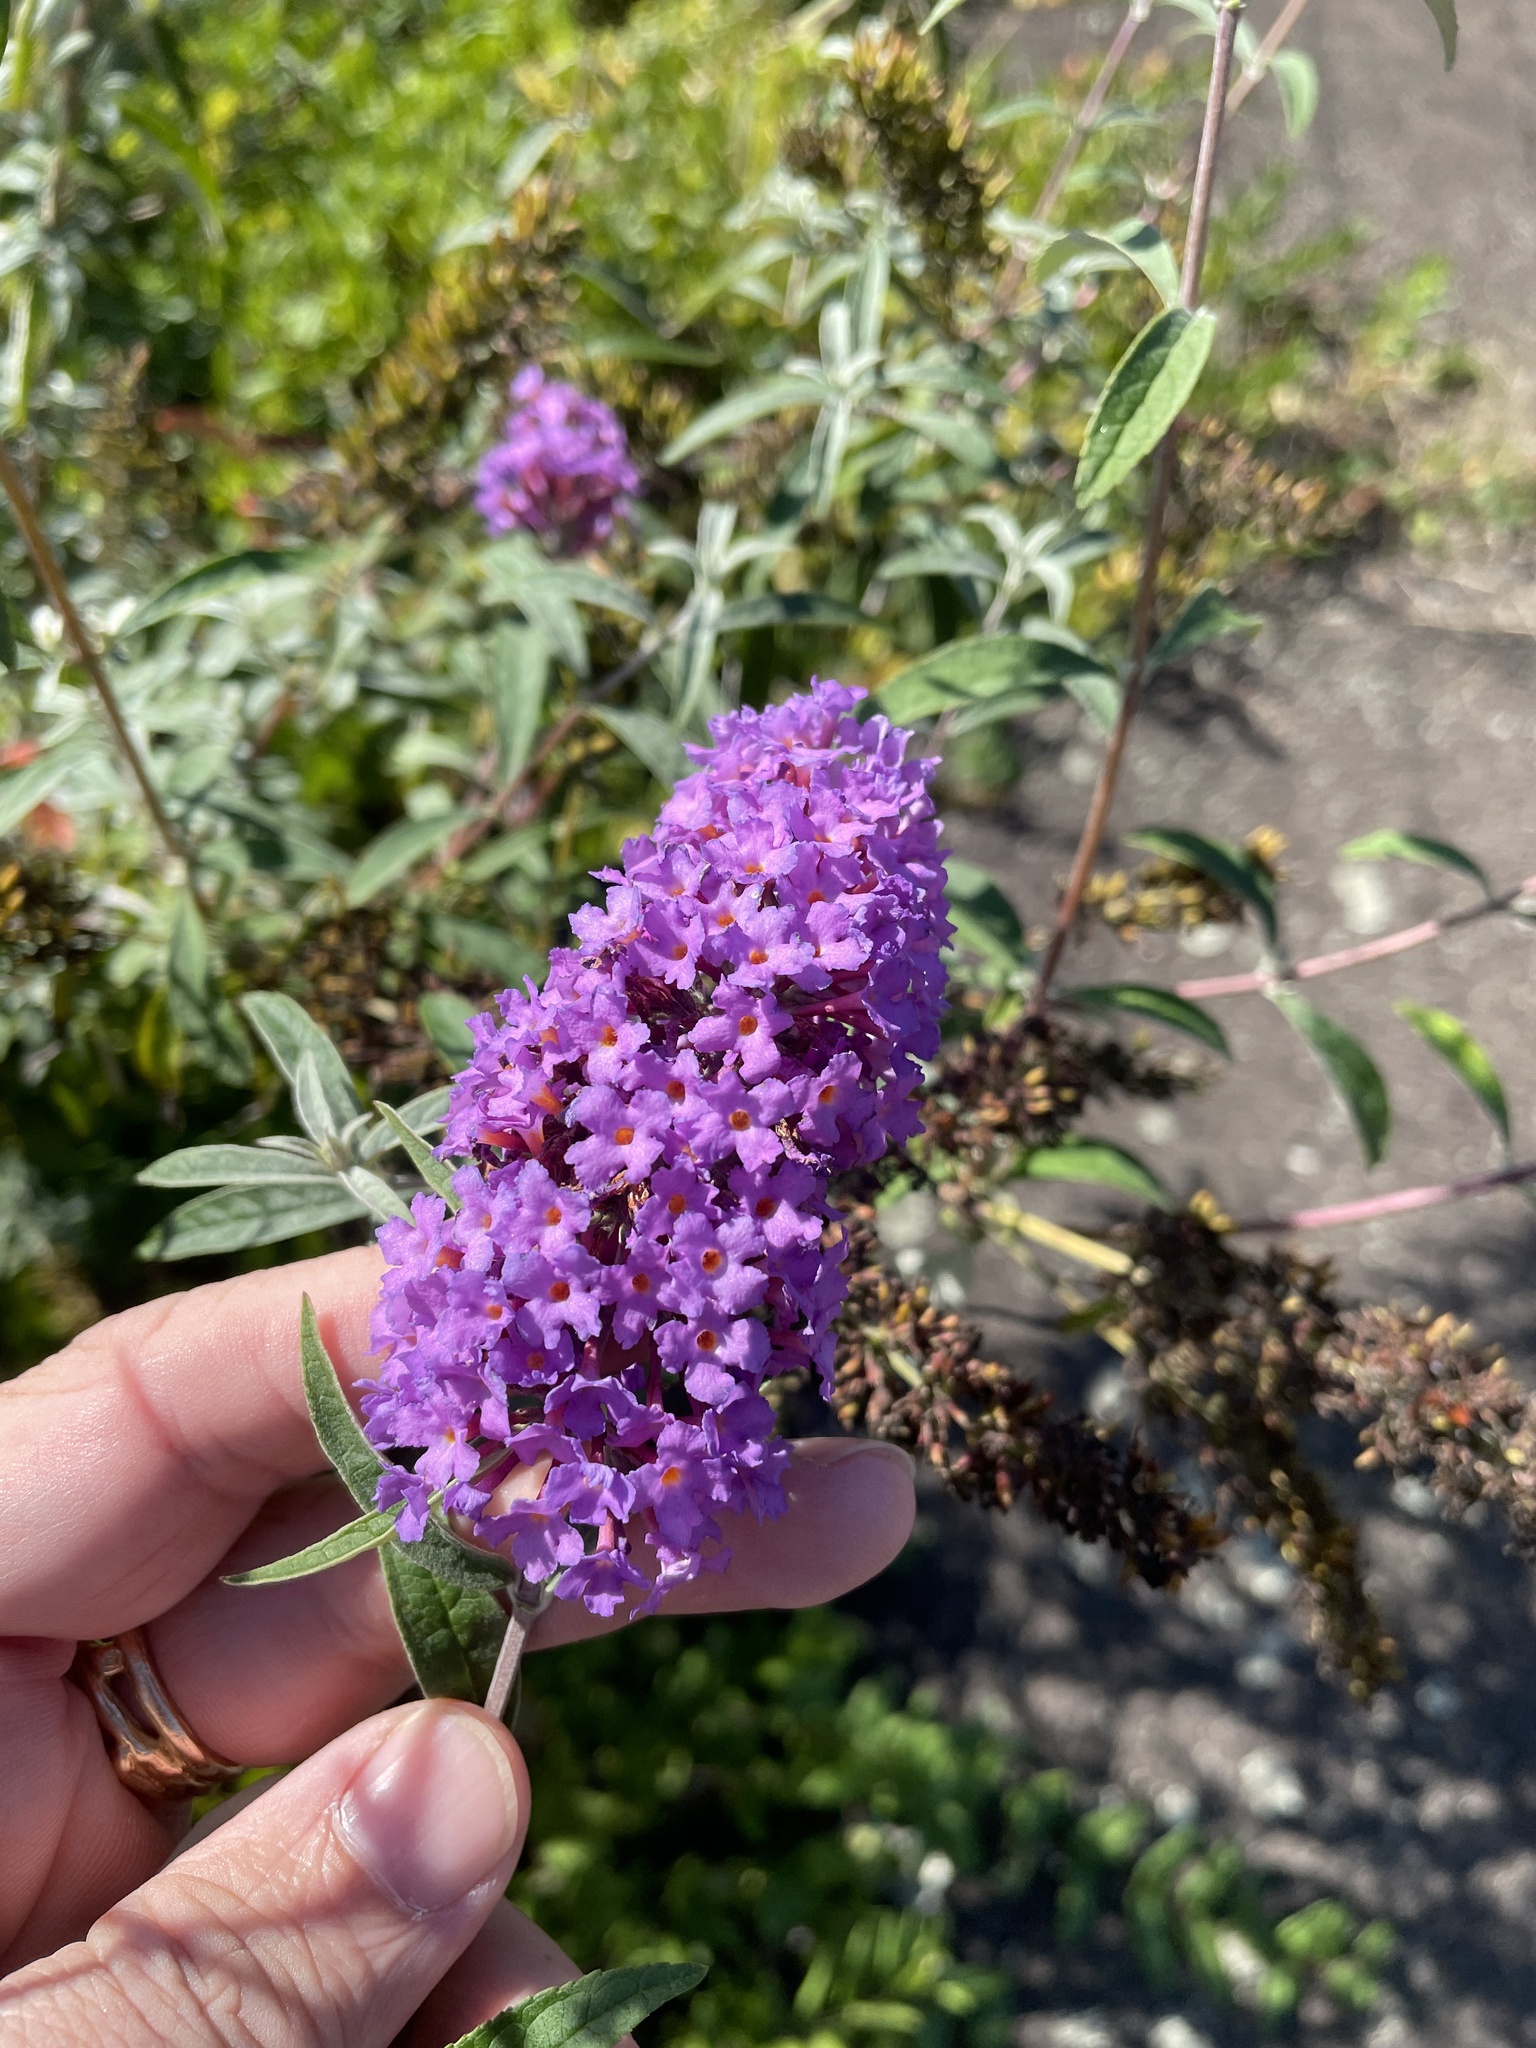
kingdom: Plantae
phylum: Tracheophyta
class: Magnoliopsida
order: Lamiales
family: Scrophulariaceae
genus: Buddleja
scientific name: Buddleja davidii
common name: Butterfly-bush
